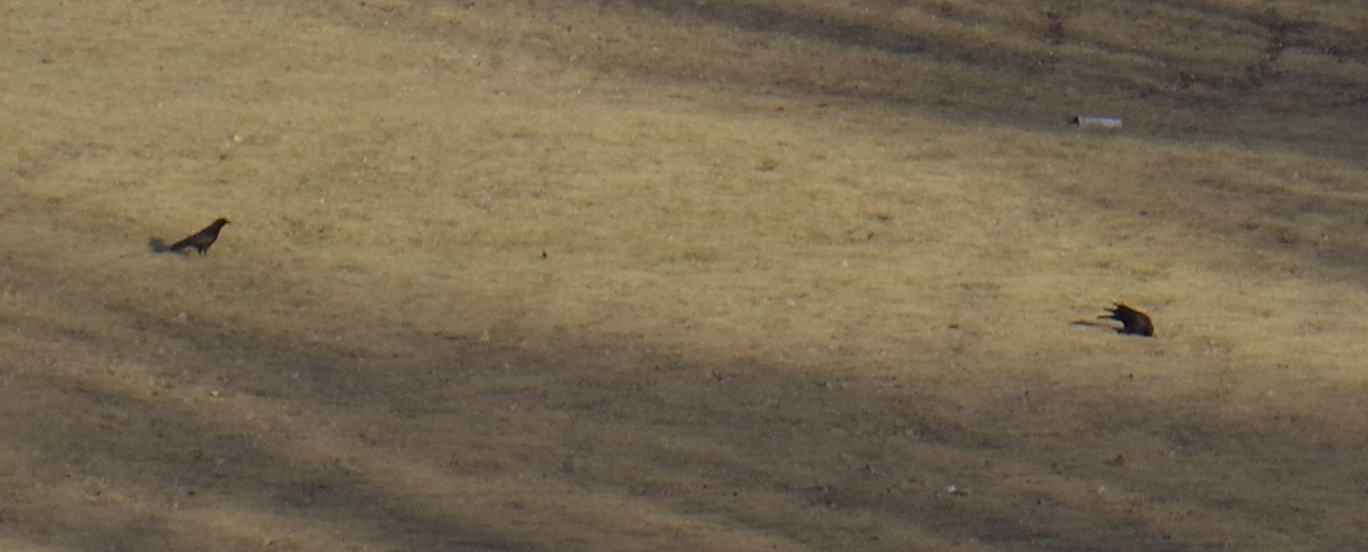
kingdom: Animalia
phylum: Chordata
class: Aves
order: Passeriformes
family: Corvidae
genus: Corvus
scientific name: Corvus brachyrhynchos
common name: American crow
